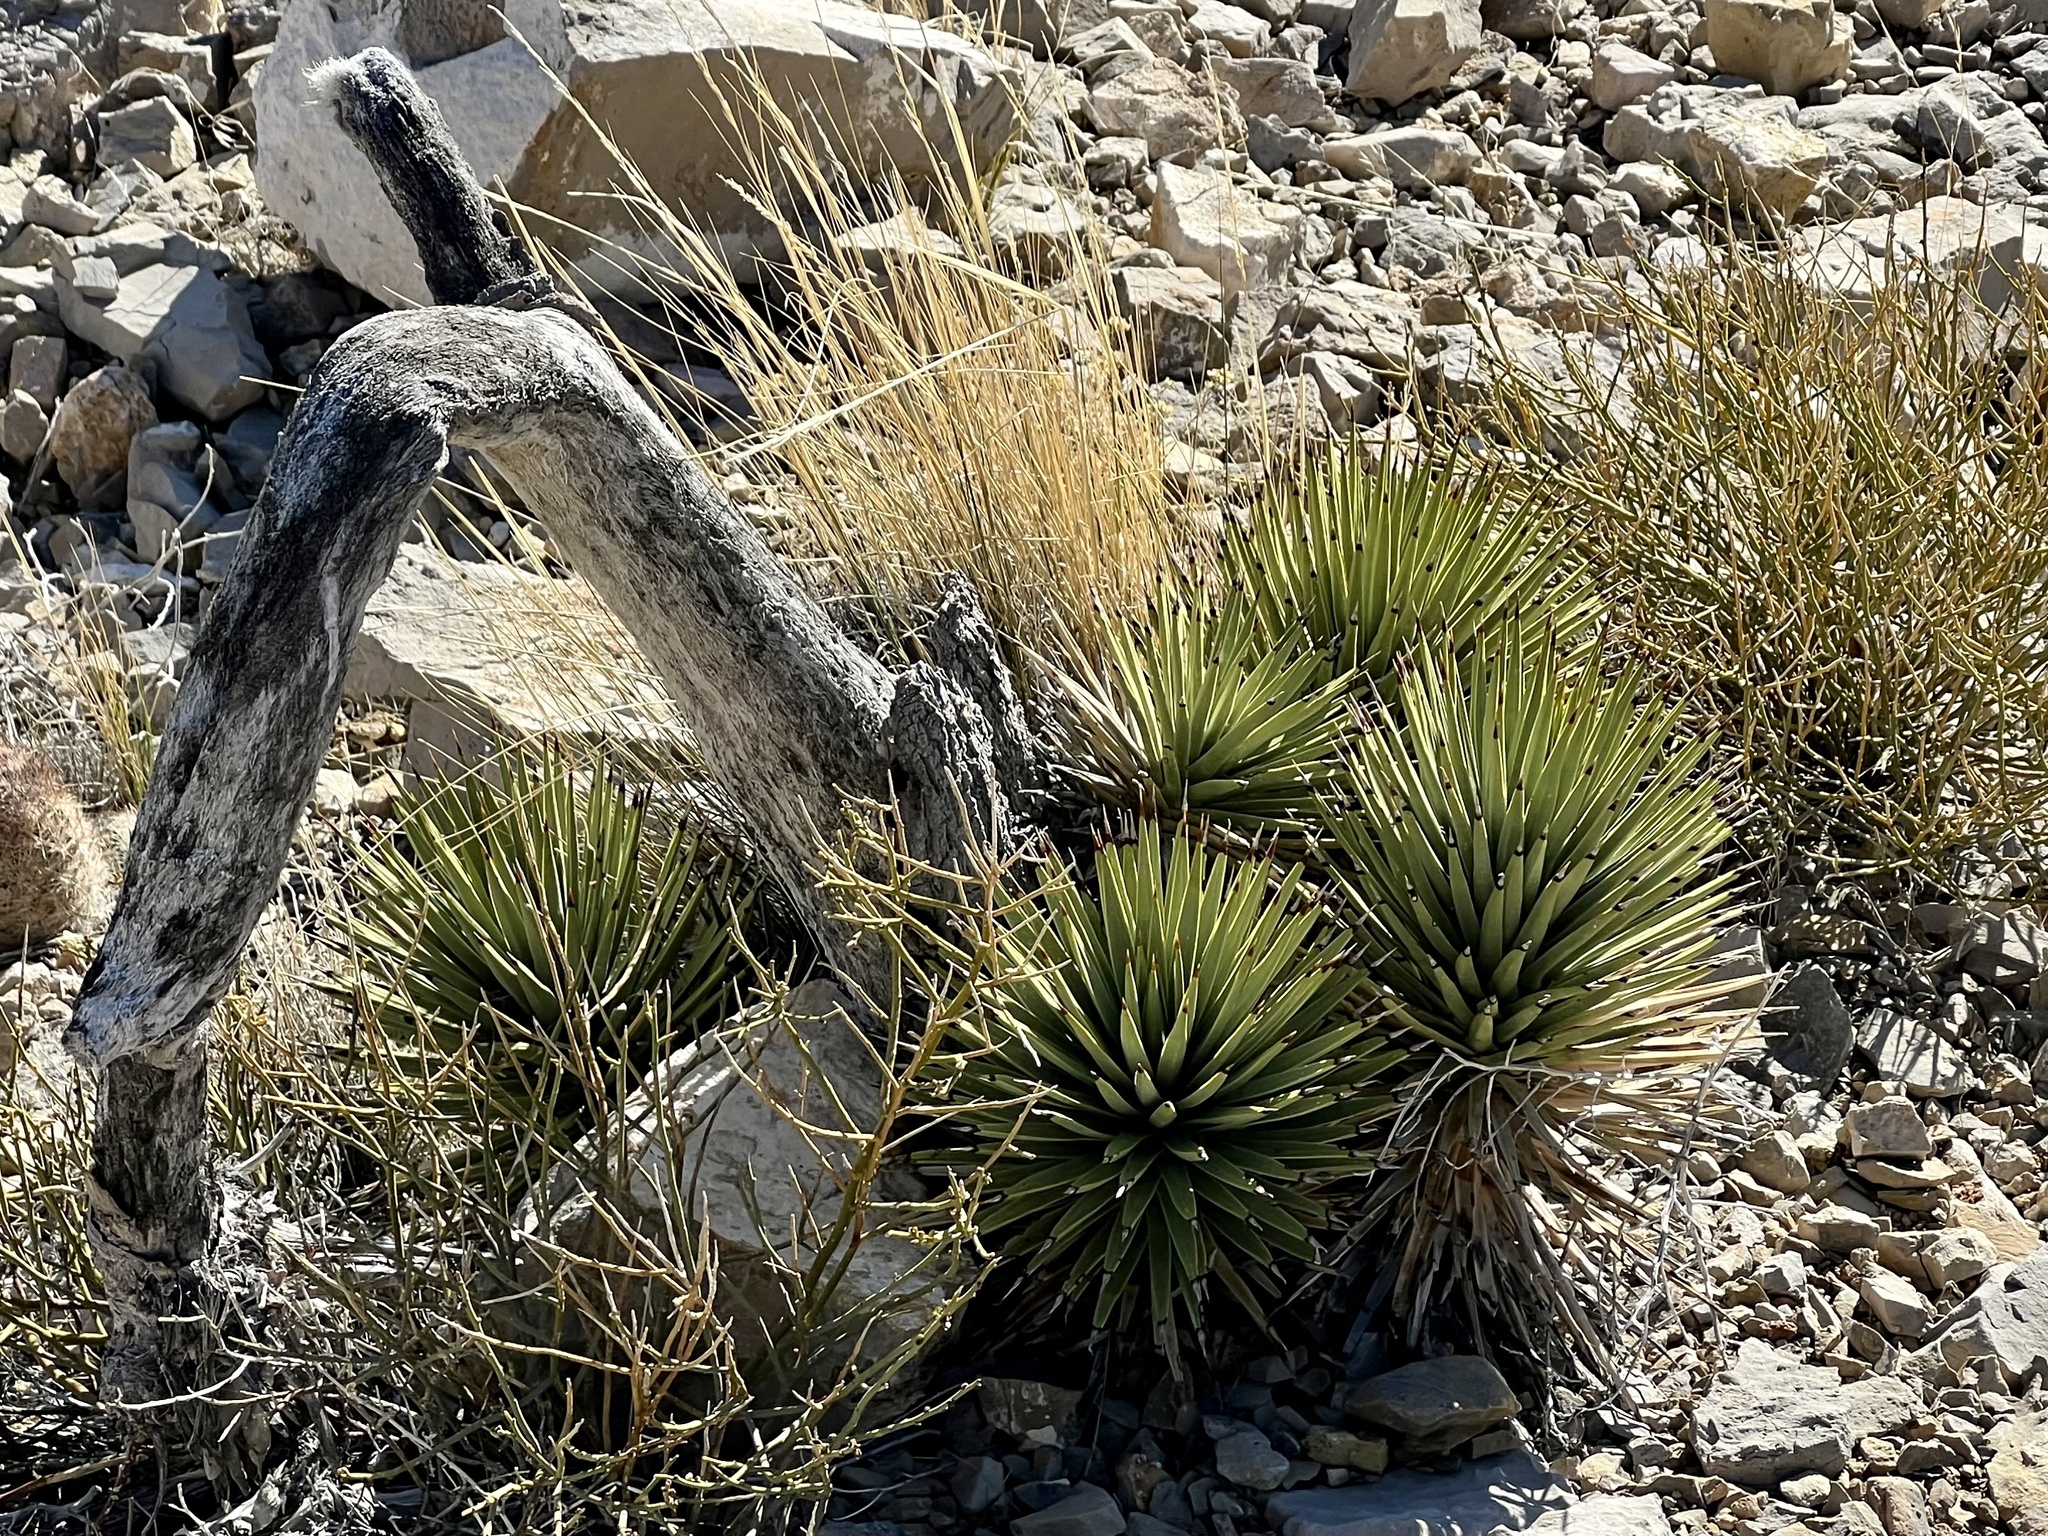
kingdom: Plantae
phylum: Tracheophyta
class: Liliopsida
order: Asparagales
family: Asparagaceae
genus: Yucca
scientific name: Yucca brevifolia
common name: Joshua tree
